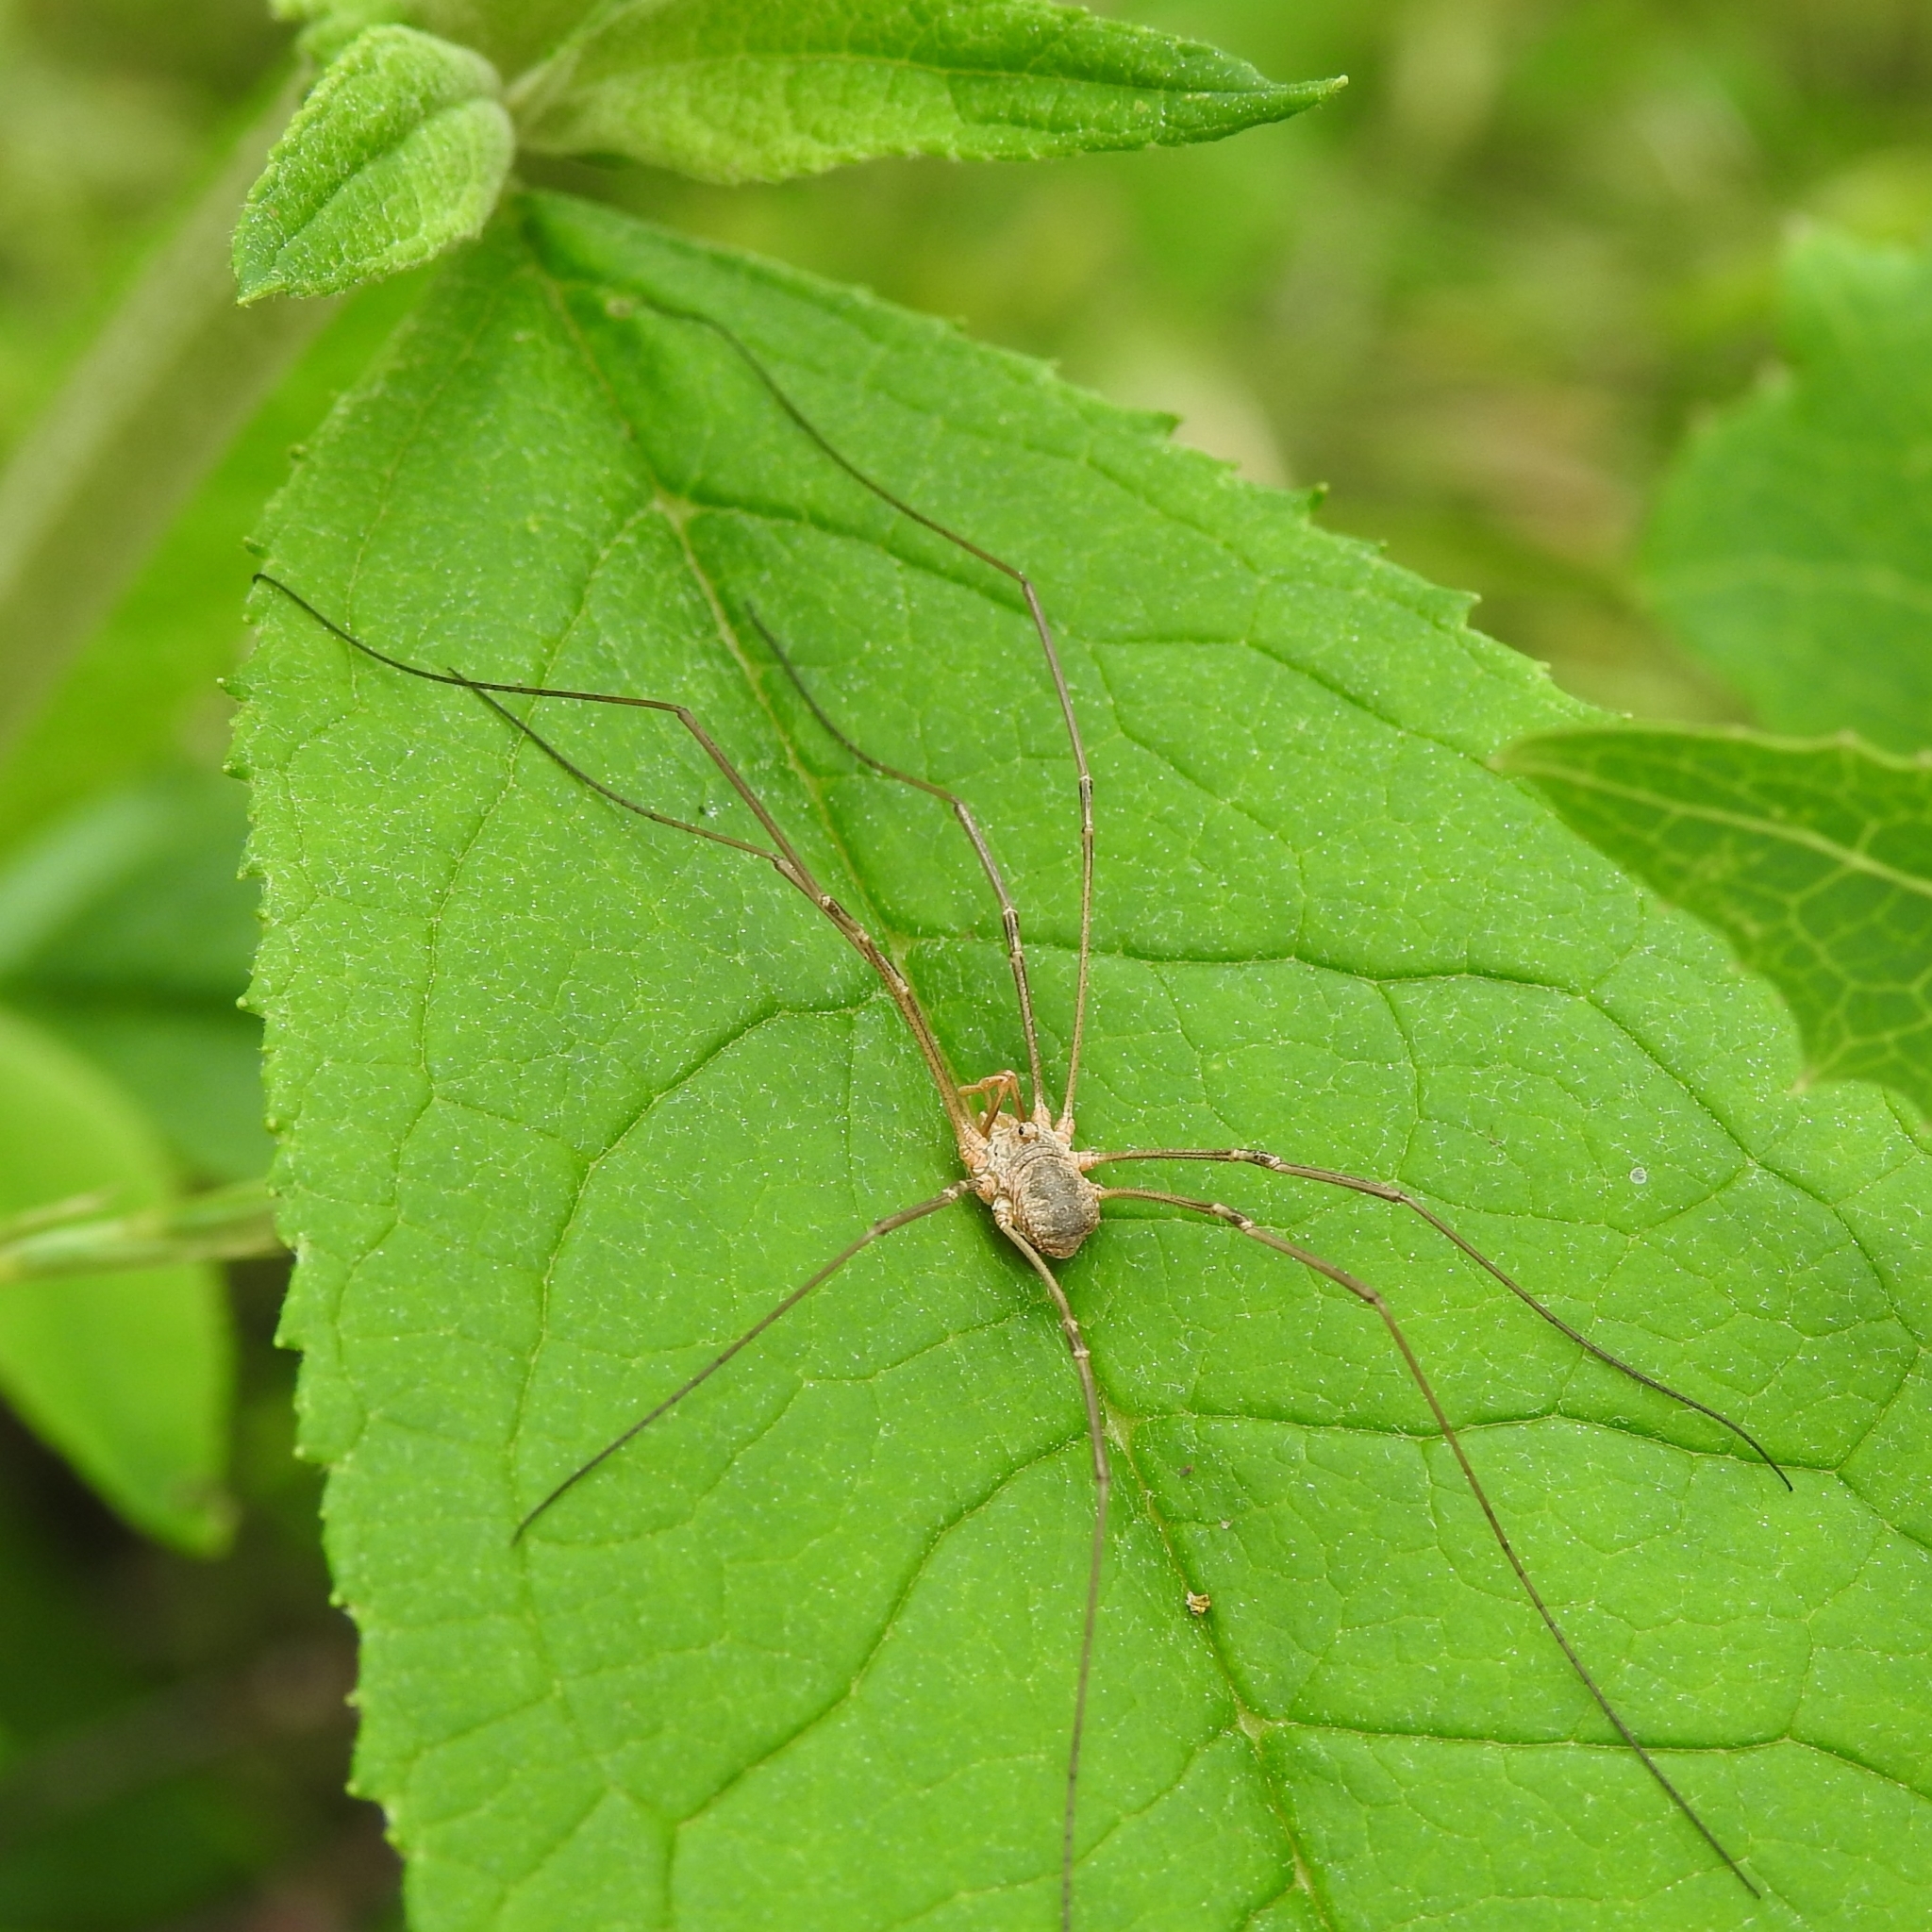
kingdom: Animalia
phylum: Arthropoda
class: Arachnida
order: Opiliones
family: Phalangiidae
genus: Phalangium
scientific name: Phalangium opilio
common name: Daddy longleg
